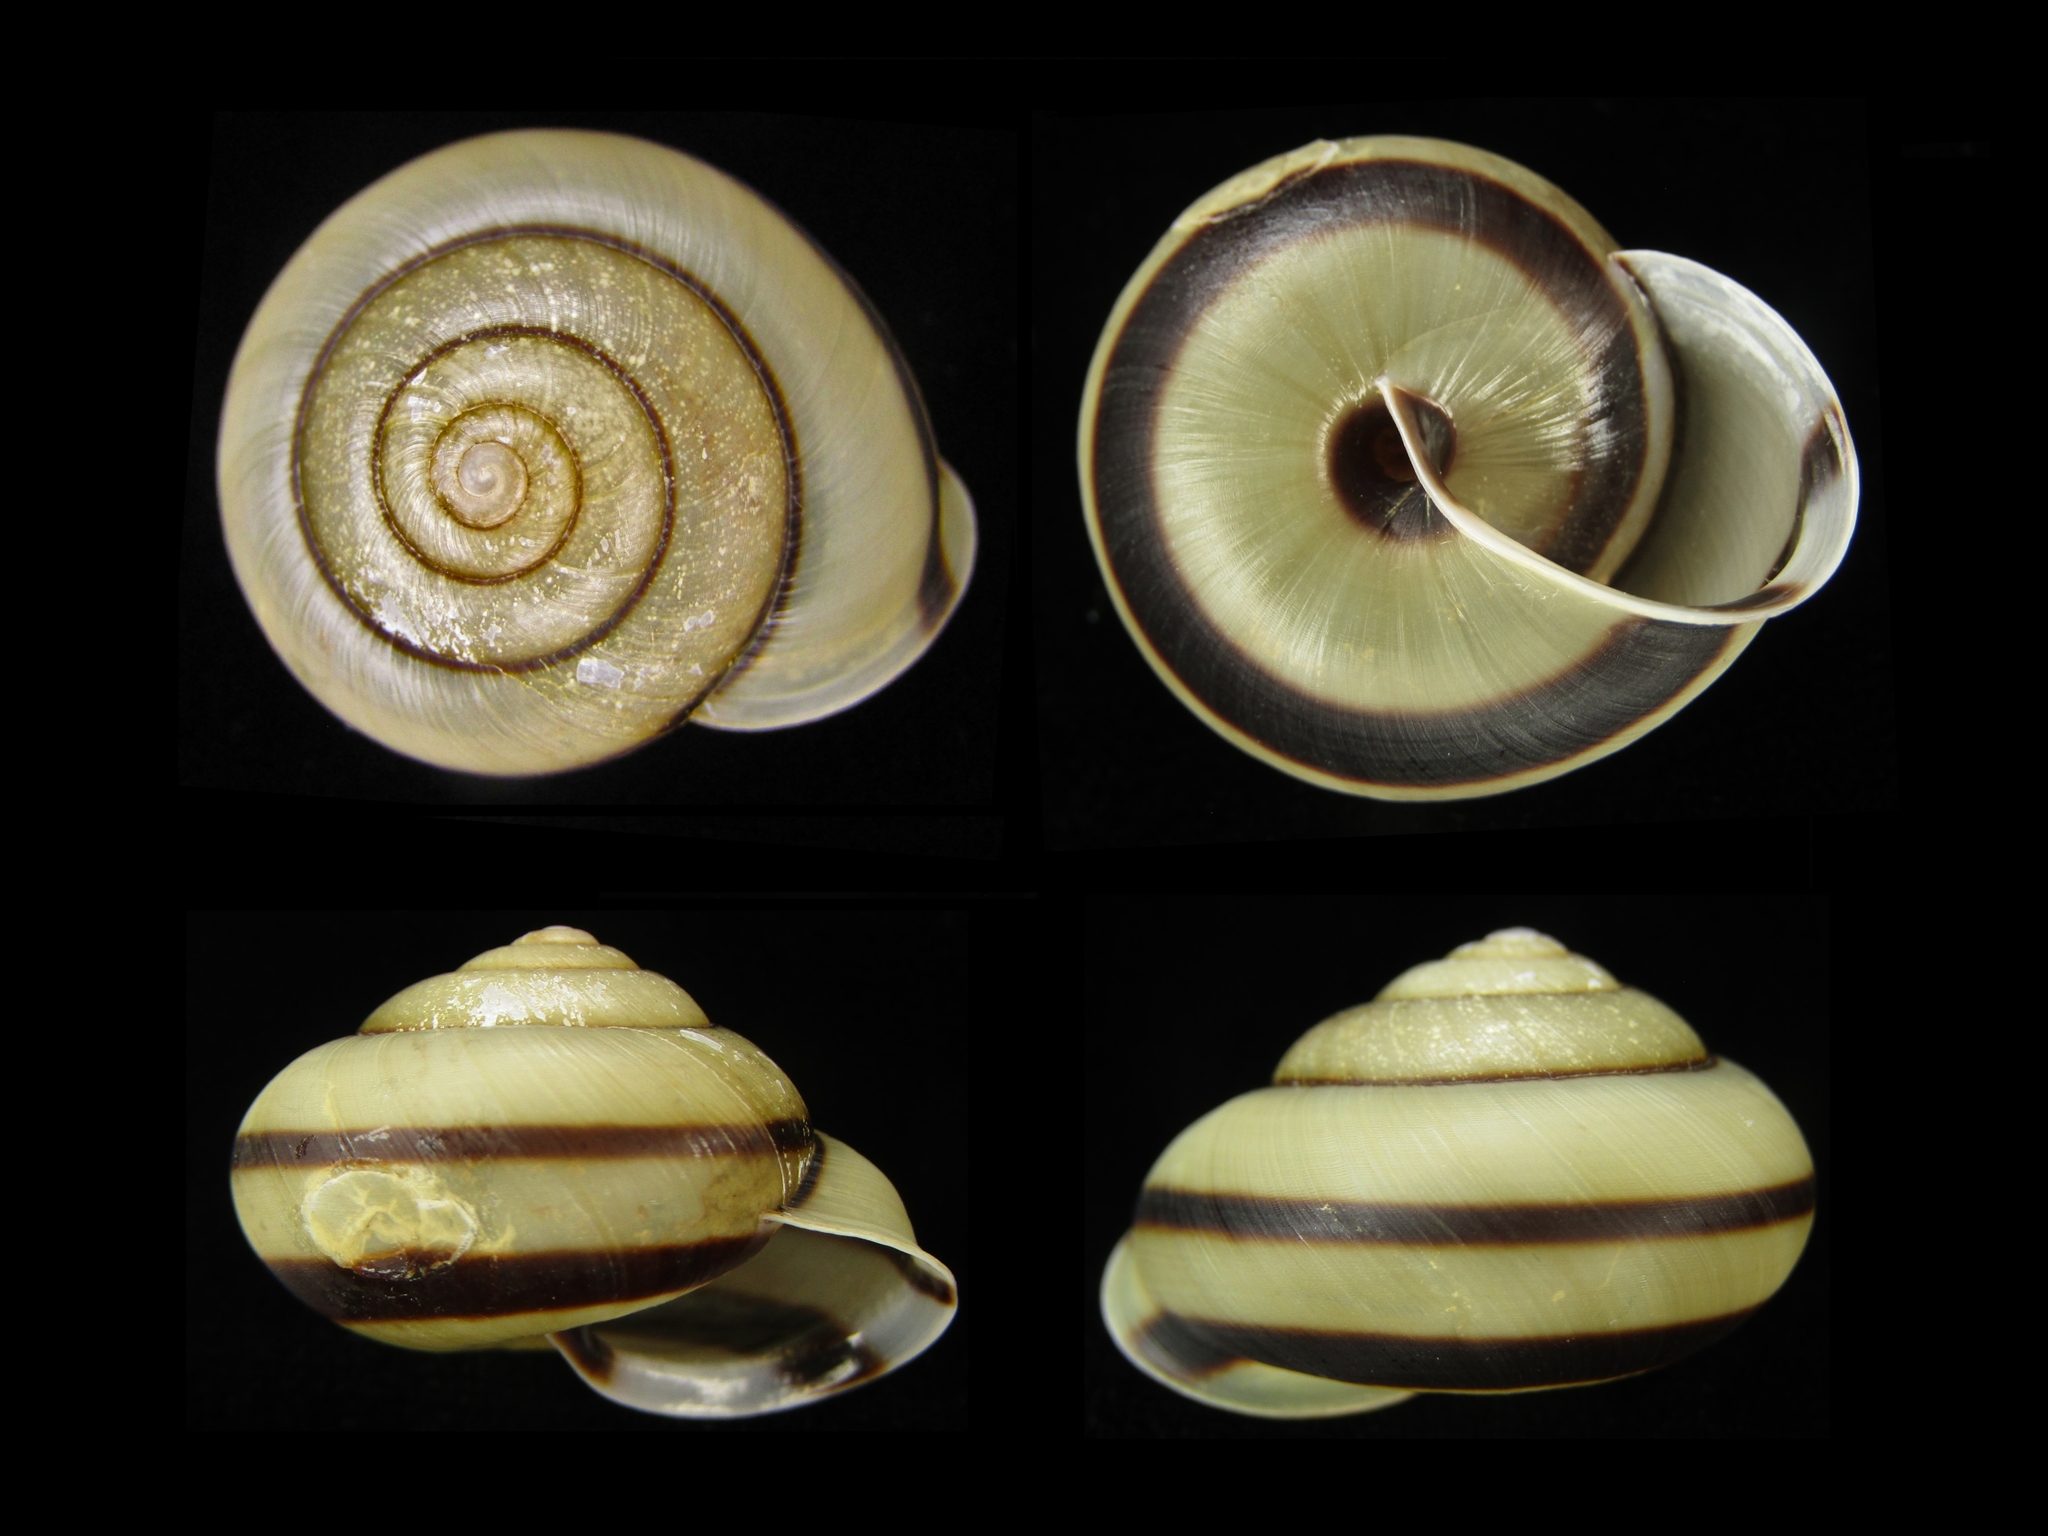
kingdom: Animalia
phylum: Mollusca
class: Gastropoda
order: Stylommatophora
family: Camaenidae
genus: Euhadra
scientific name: Euhadra callizona
